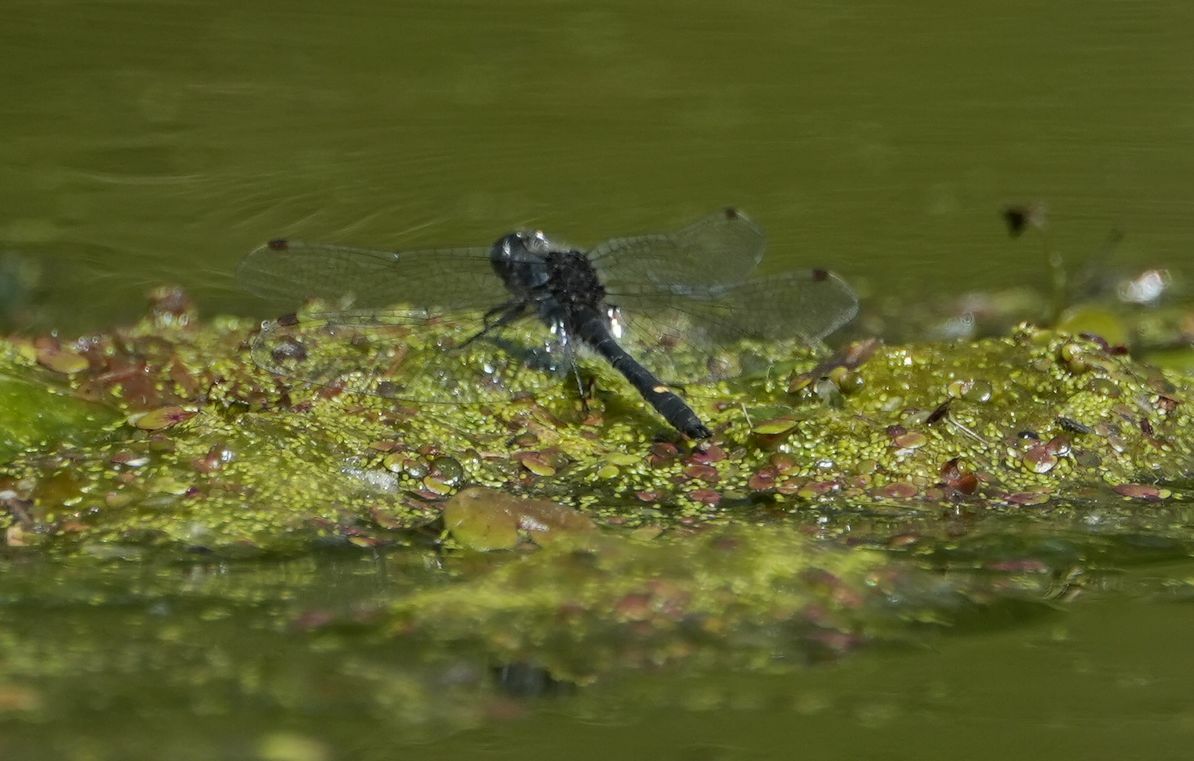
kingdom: Animalia
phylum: Arthropoda
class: Insecta
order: Odonata
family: Libellulidae
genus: Leucorrhinia
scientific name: Leucorrhinia intacta
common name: Dot-tailed whiteface
